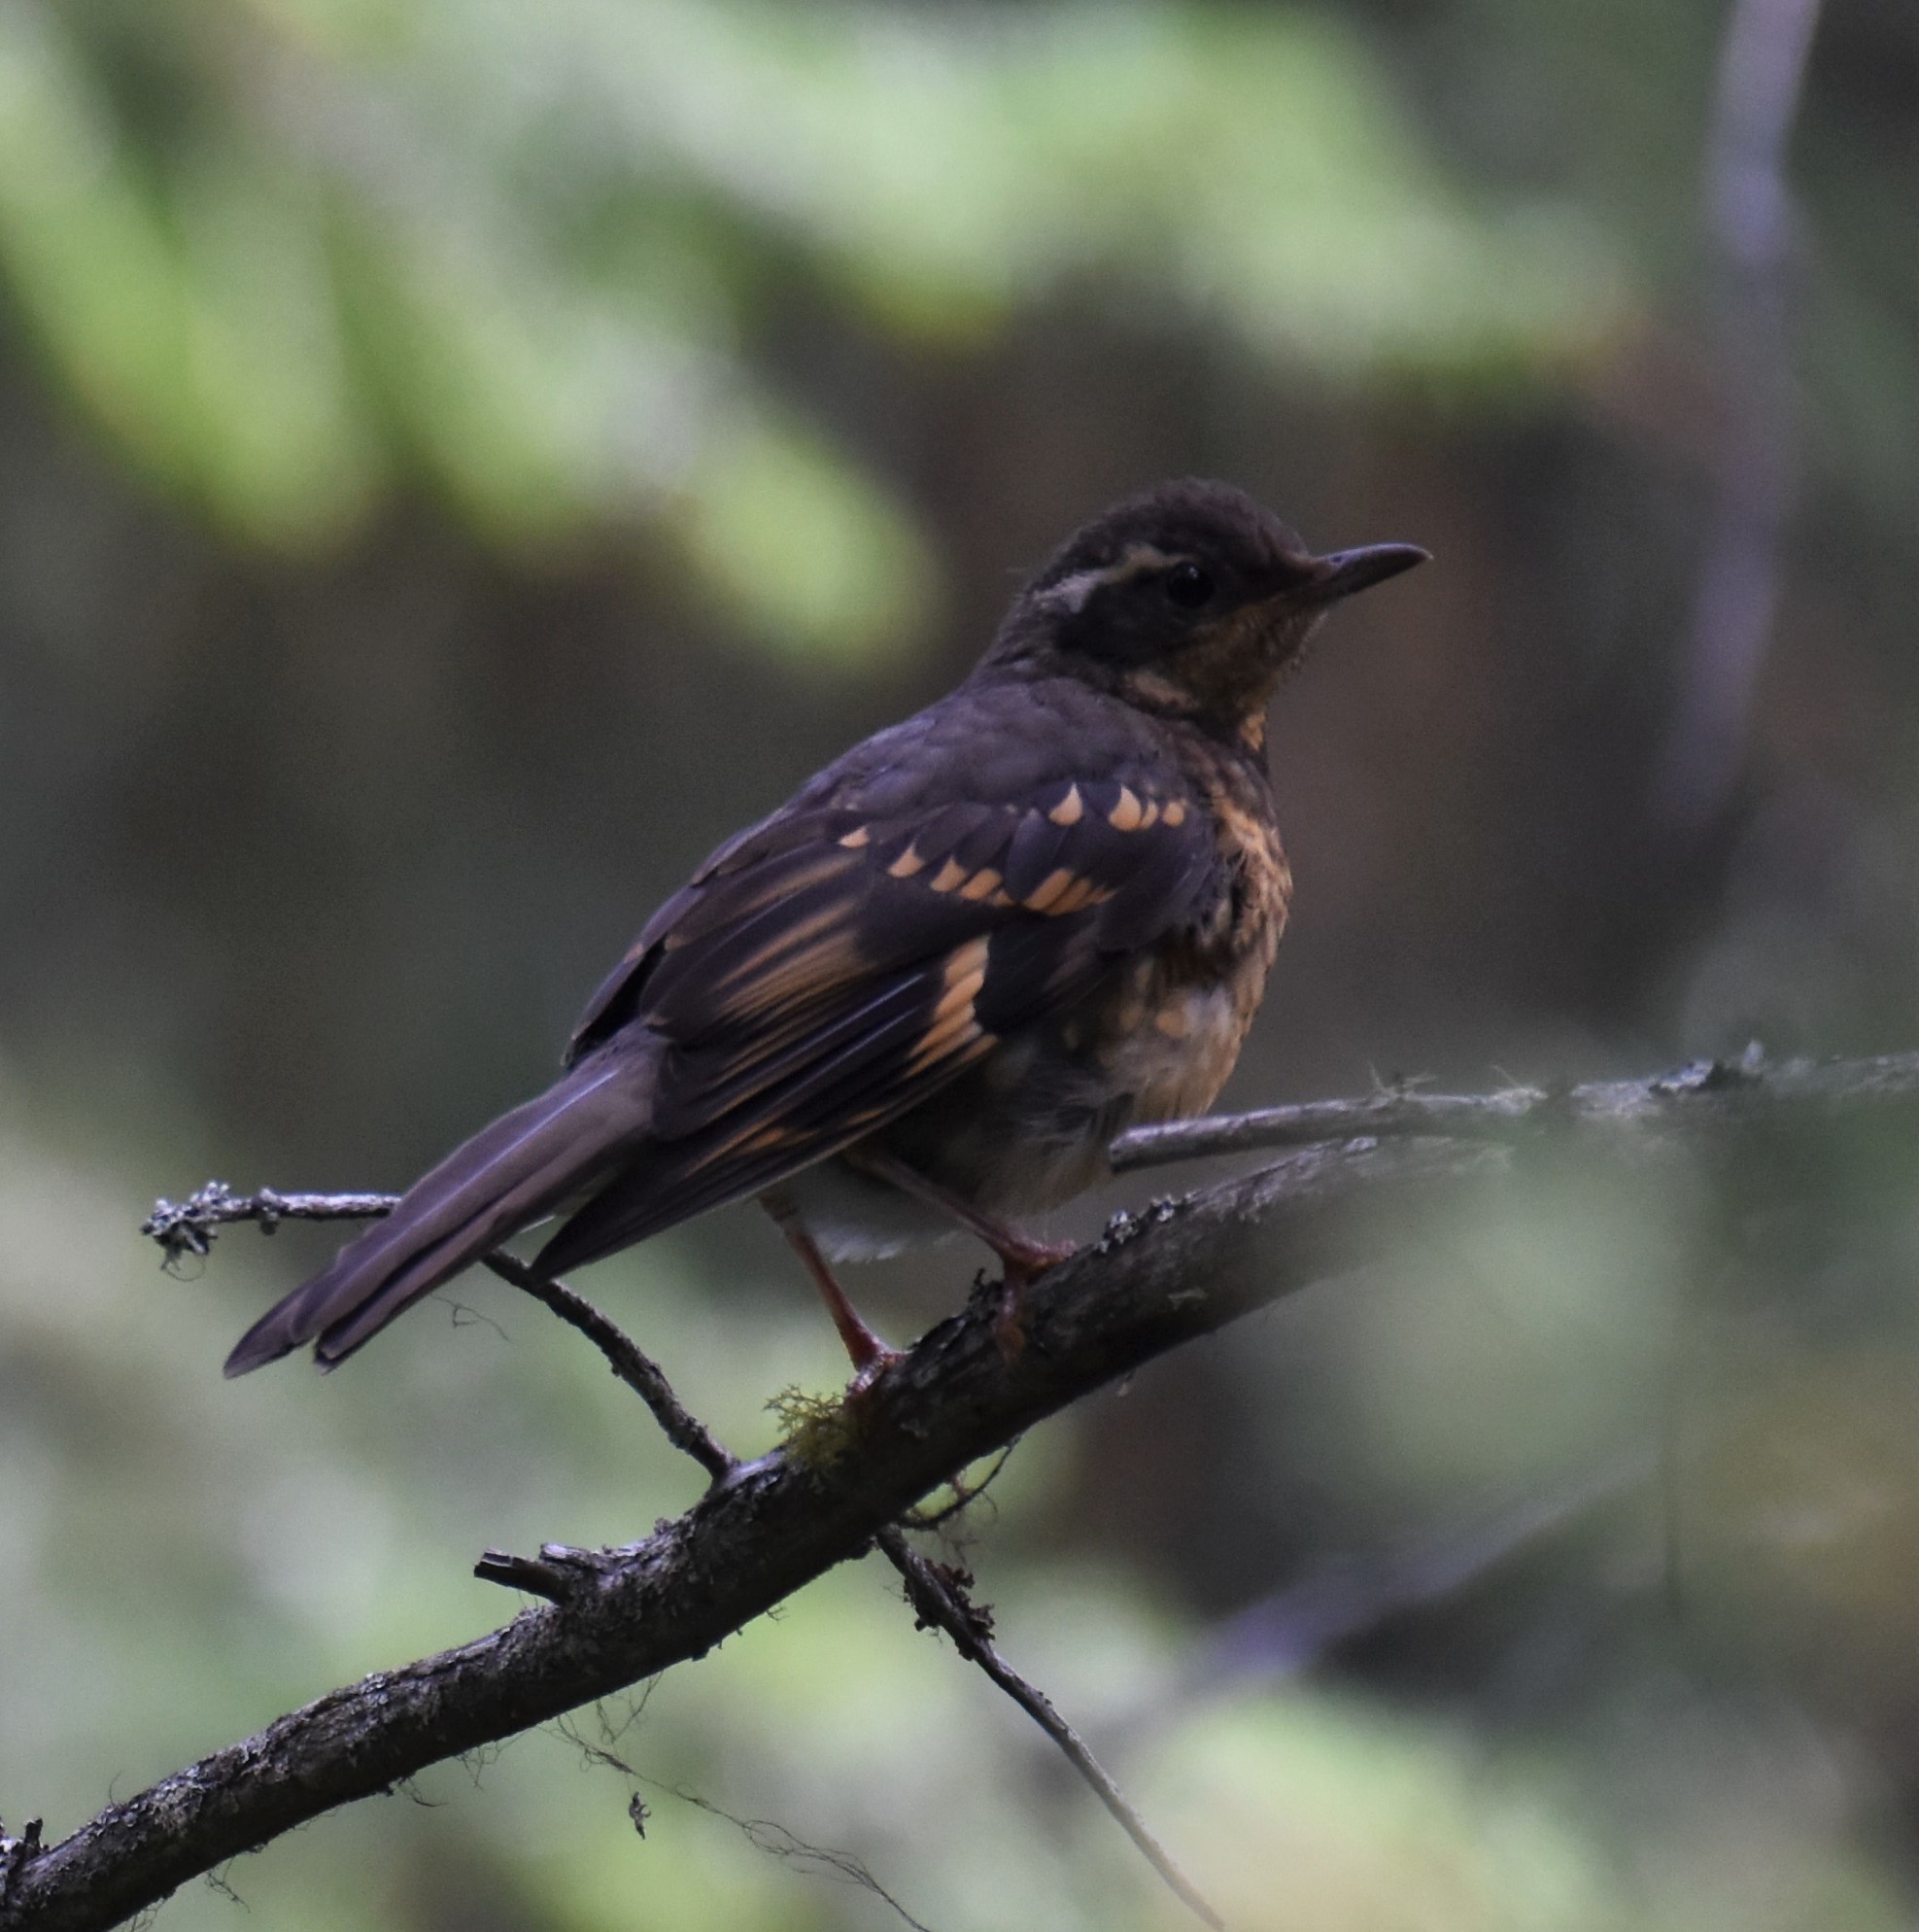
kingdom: Animalia
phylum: Chordata
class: Aves
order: Passeriformes
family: Turdidae
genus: Ixoreus
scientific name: Ixoreus naevius
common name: Varied thrush
